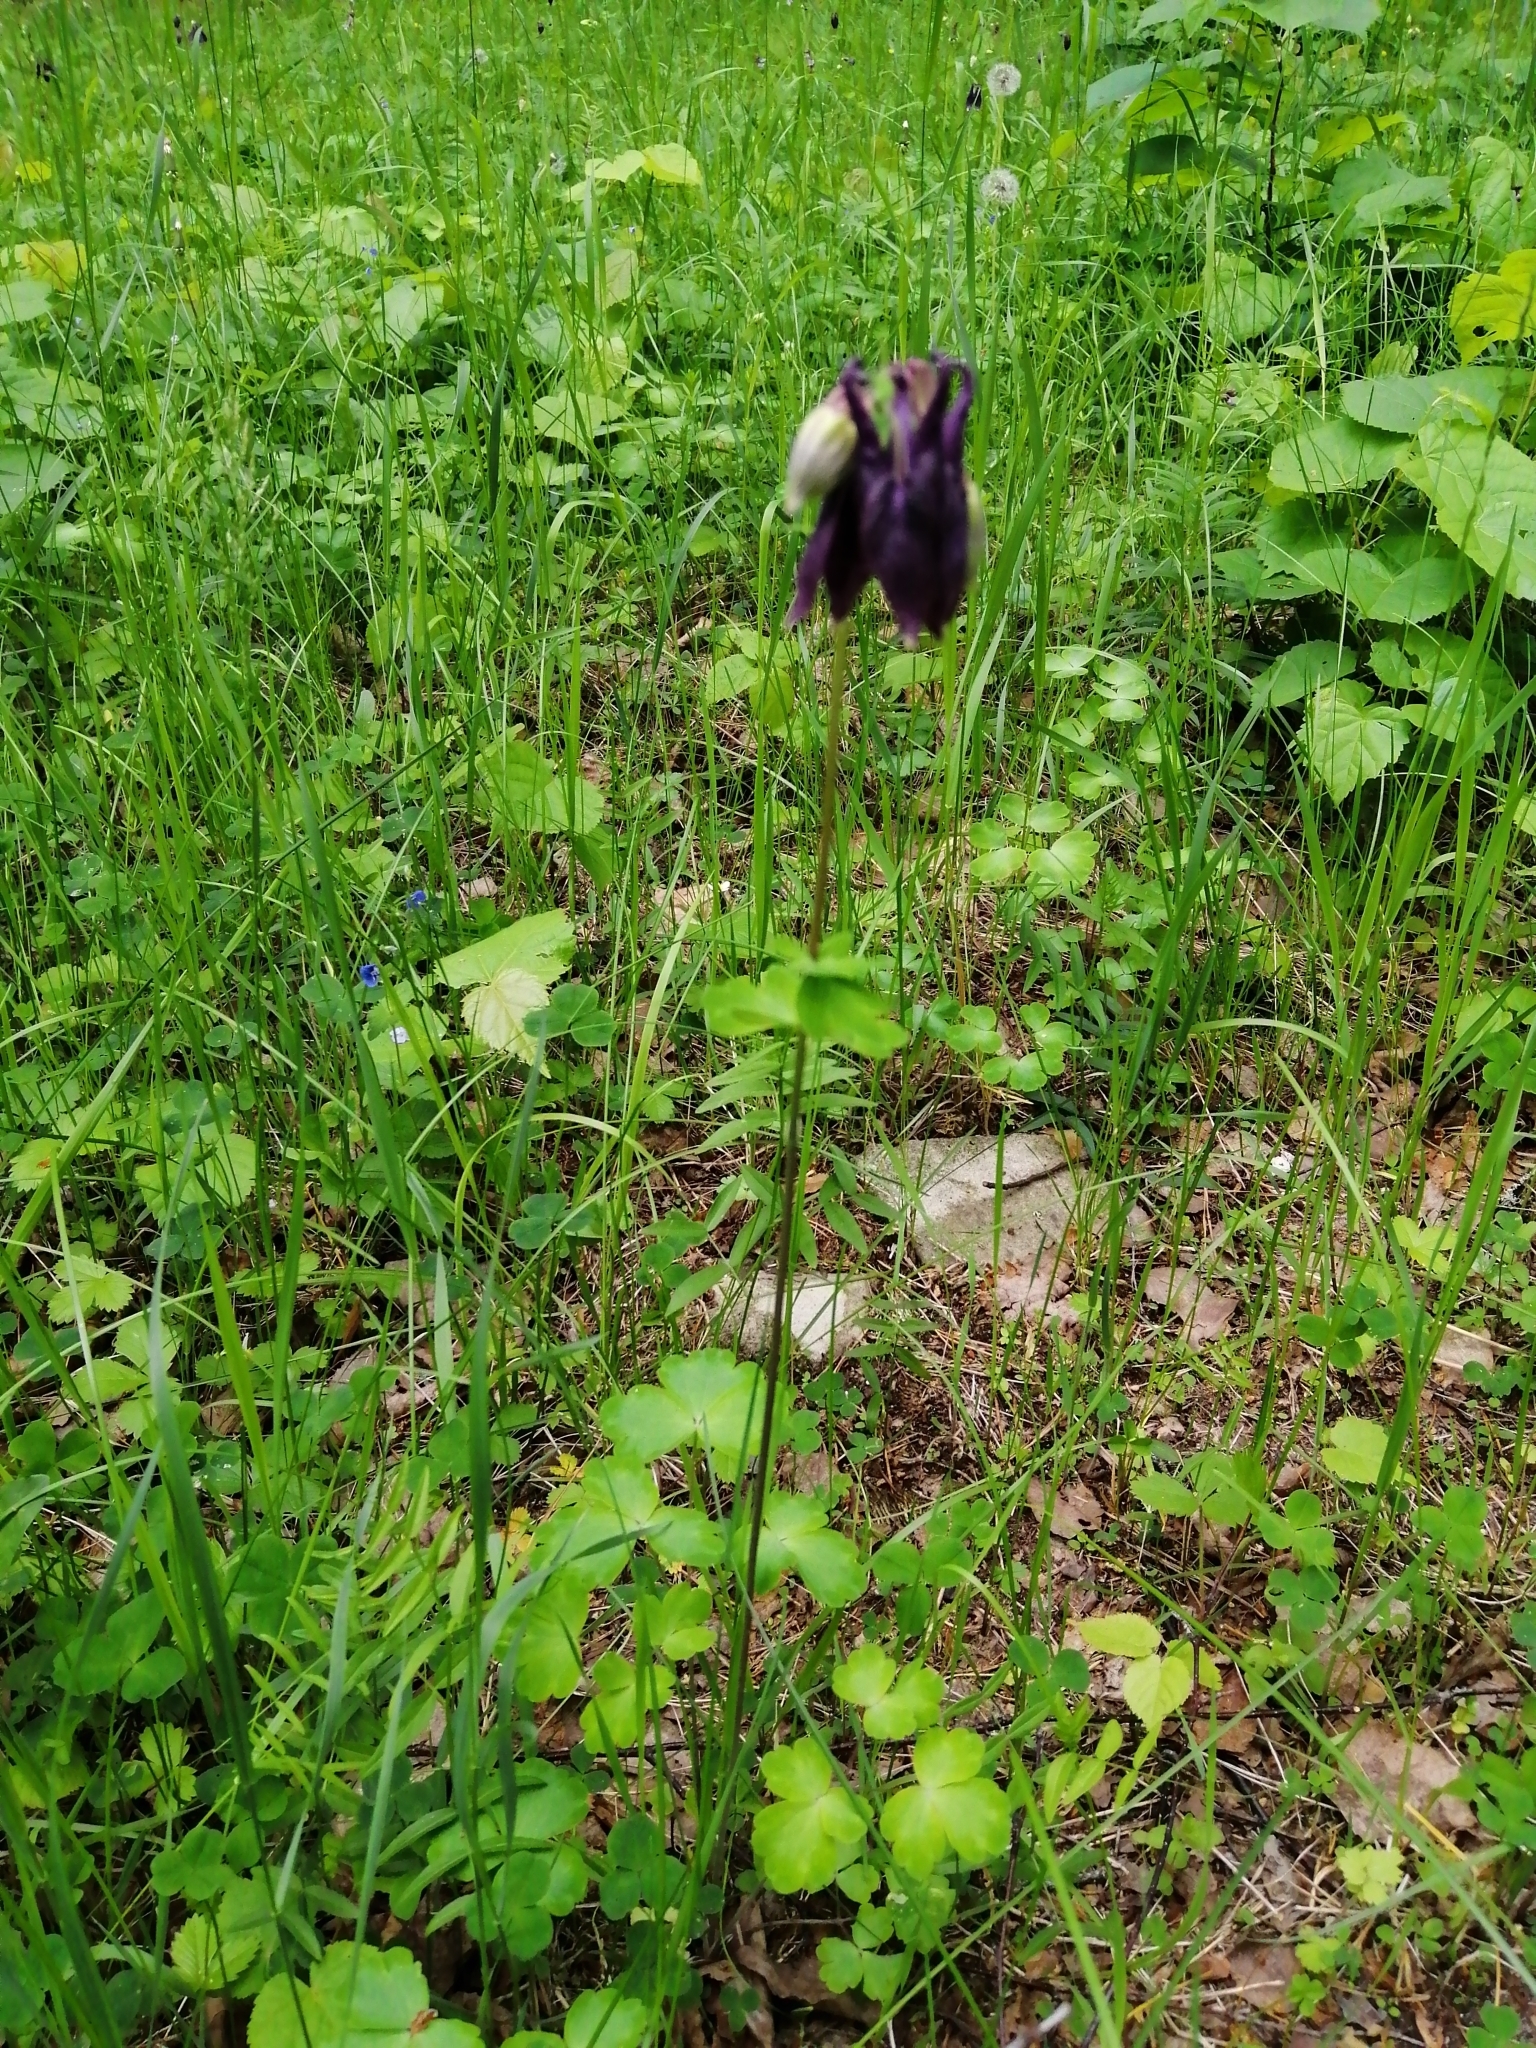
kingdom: Plantae
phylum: Tracheophyta
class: Magnoliopsida
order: Ranunculales
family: Ranunculaceae
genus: Aquilegia
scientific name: Aquilegia vulgaris
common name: Columbine
